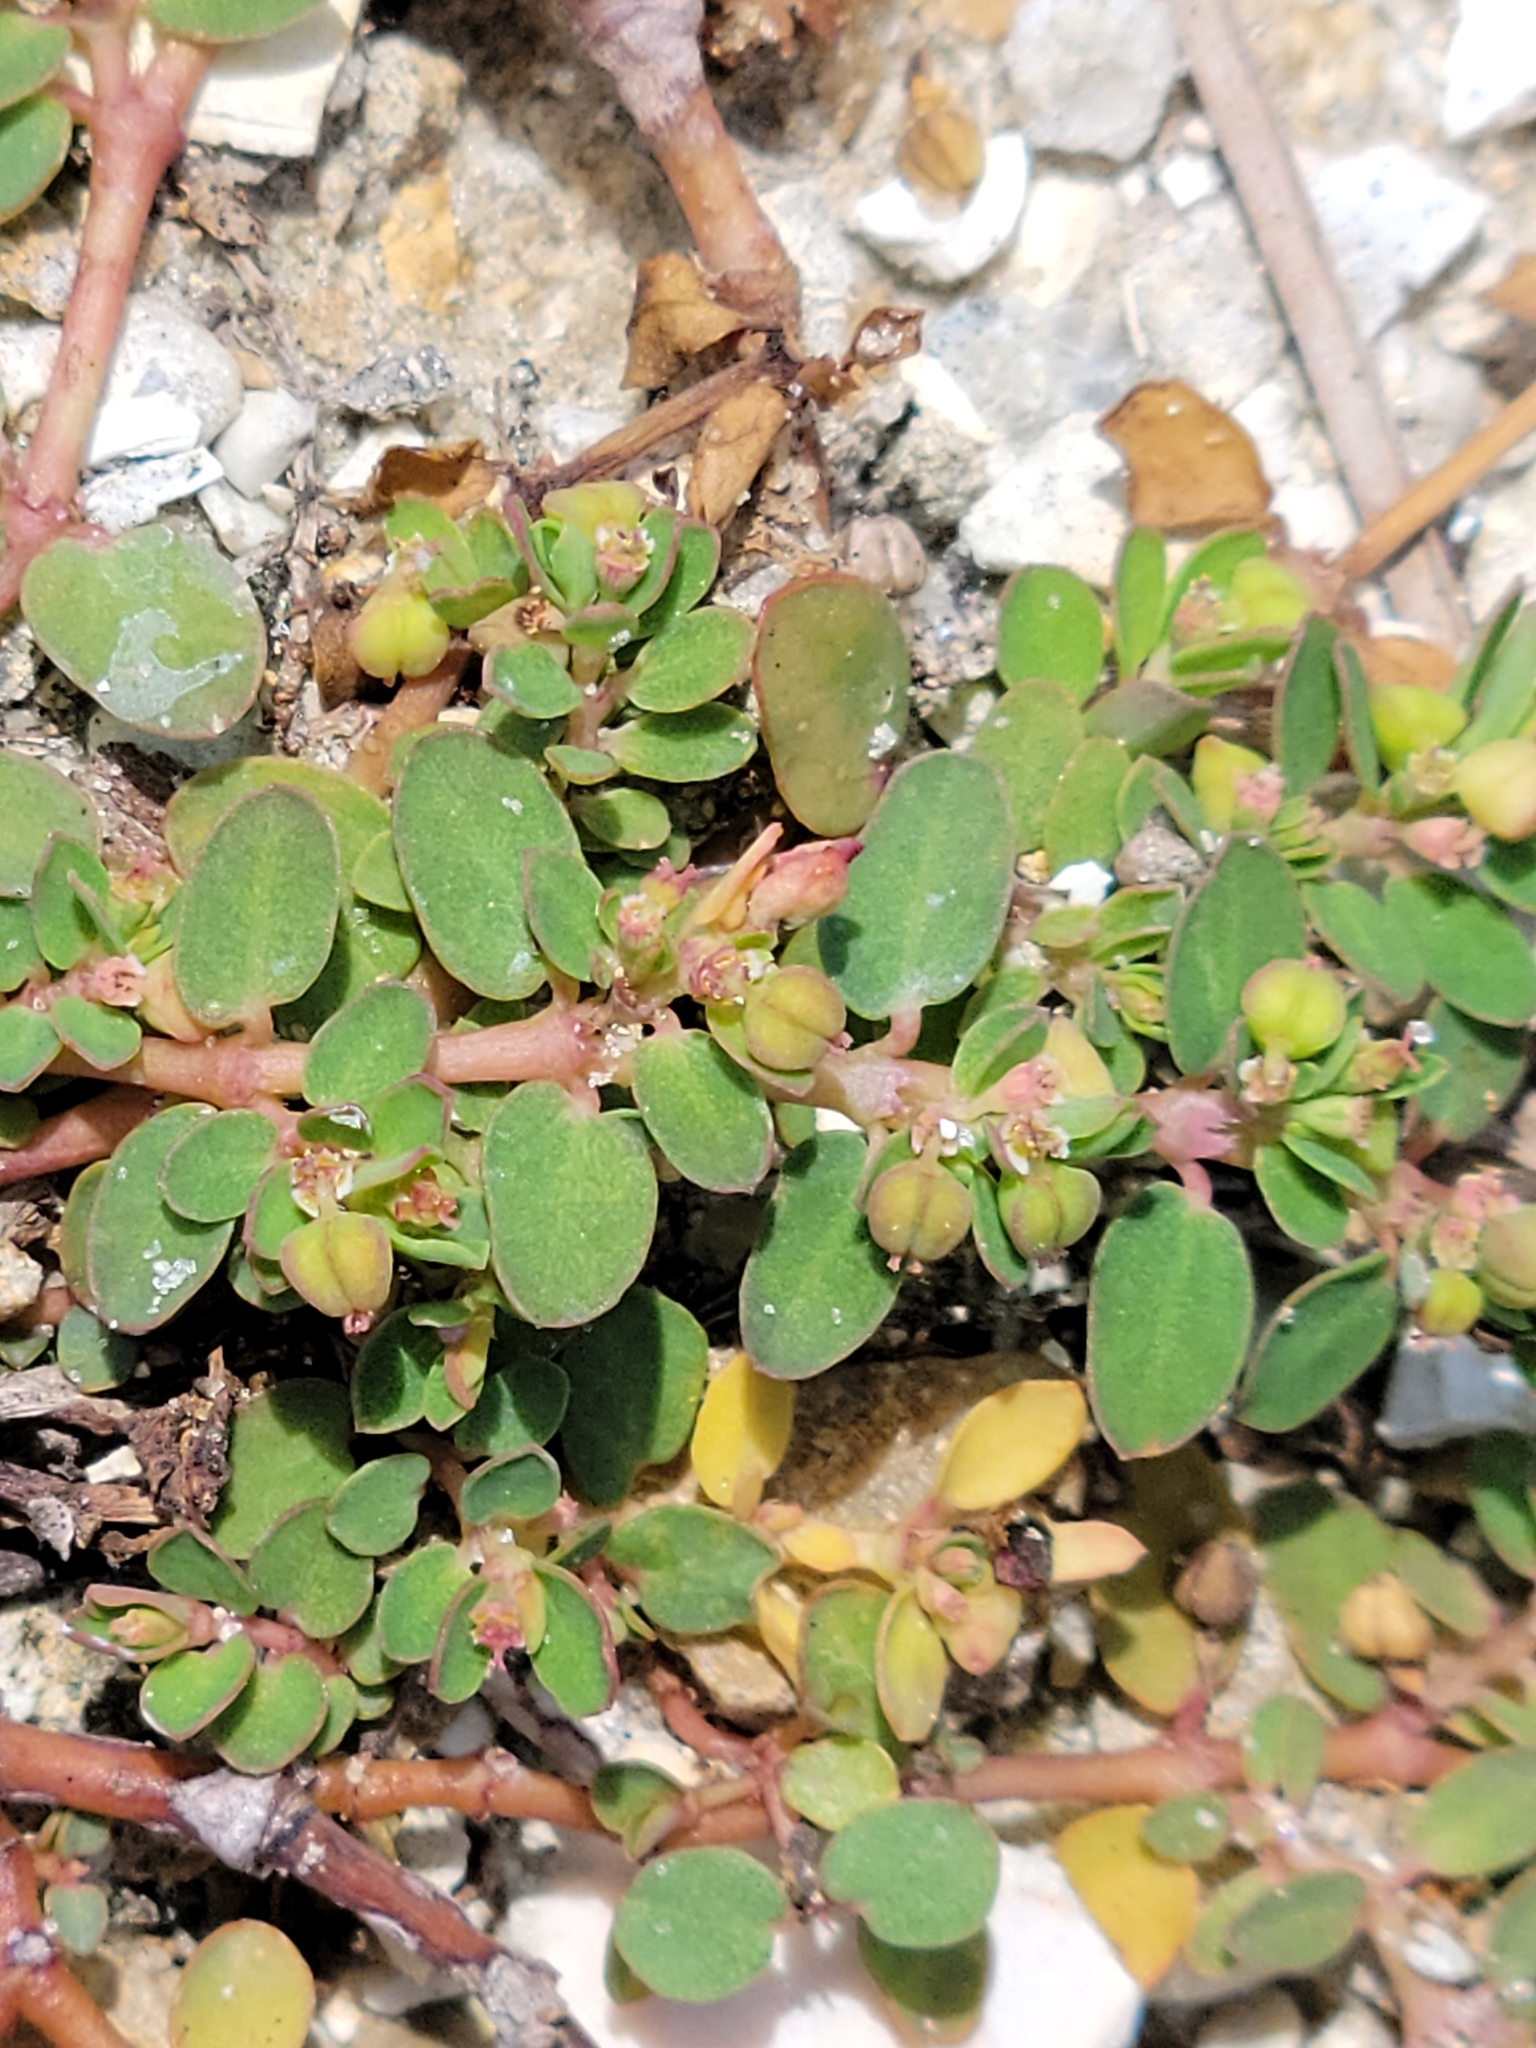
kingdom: Plantae
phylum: Tracheophyta
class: Magnoliopsida
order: Malpighiales
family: Euphorbiaceae
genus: Euphorbia
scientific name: Euphorbia blodgettii
